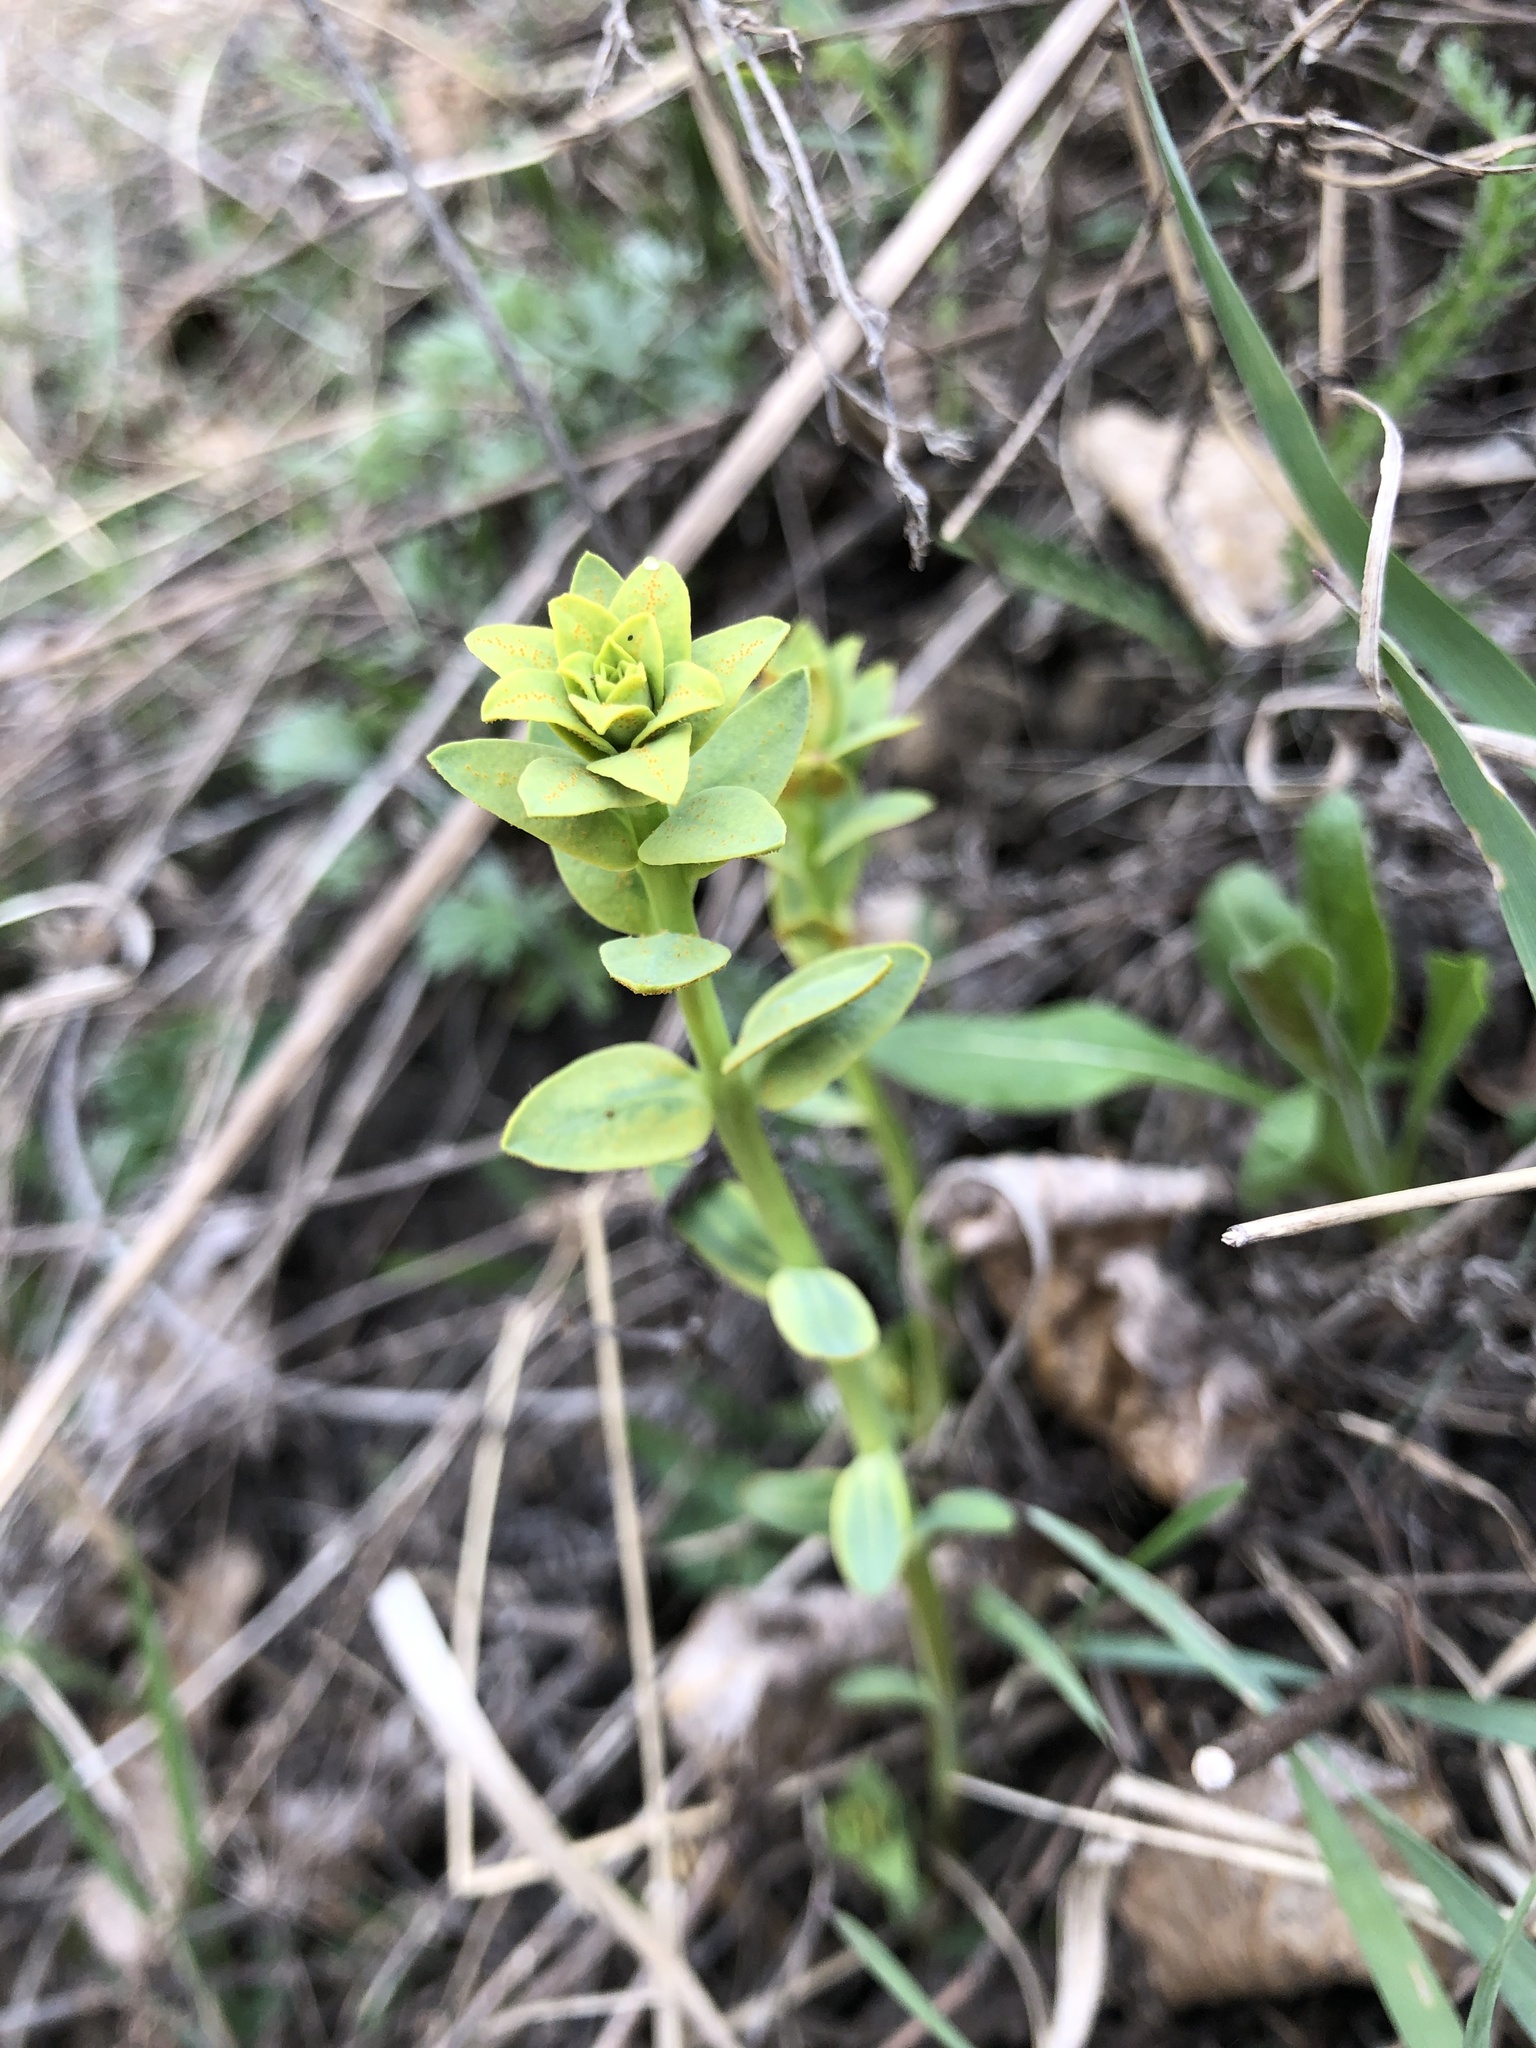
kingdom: Plantae
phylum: Tracheophyta
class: Magnoliopsida
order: Malpighiales
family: Euphorbiaceae
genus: Euphorbia
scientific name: Euphorbia virgata
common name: Leafy spurge
